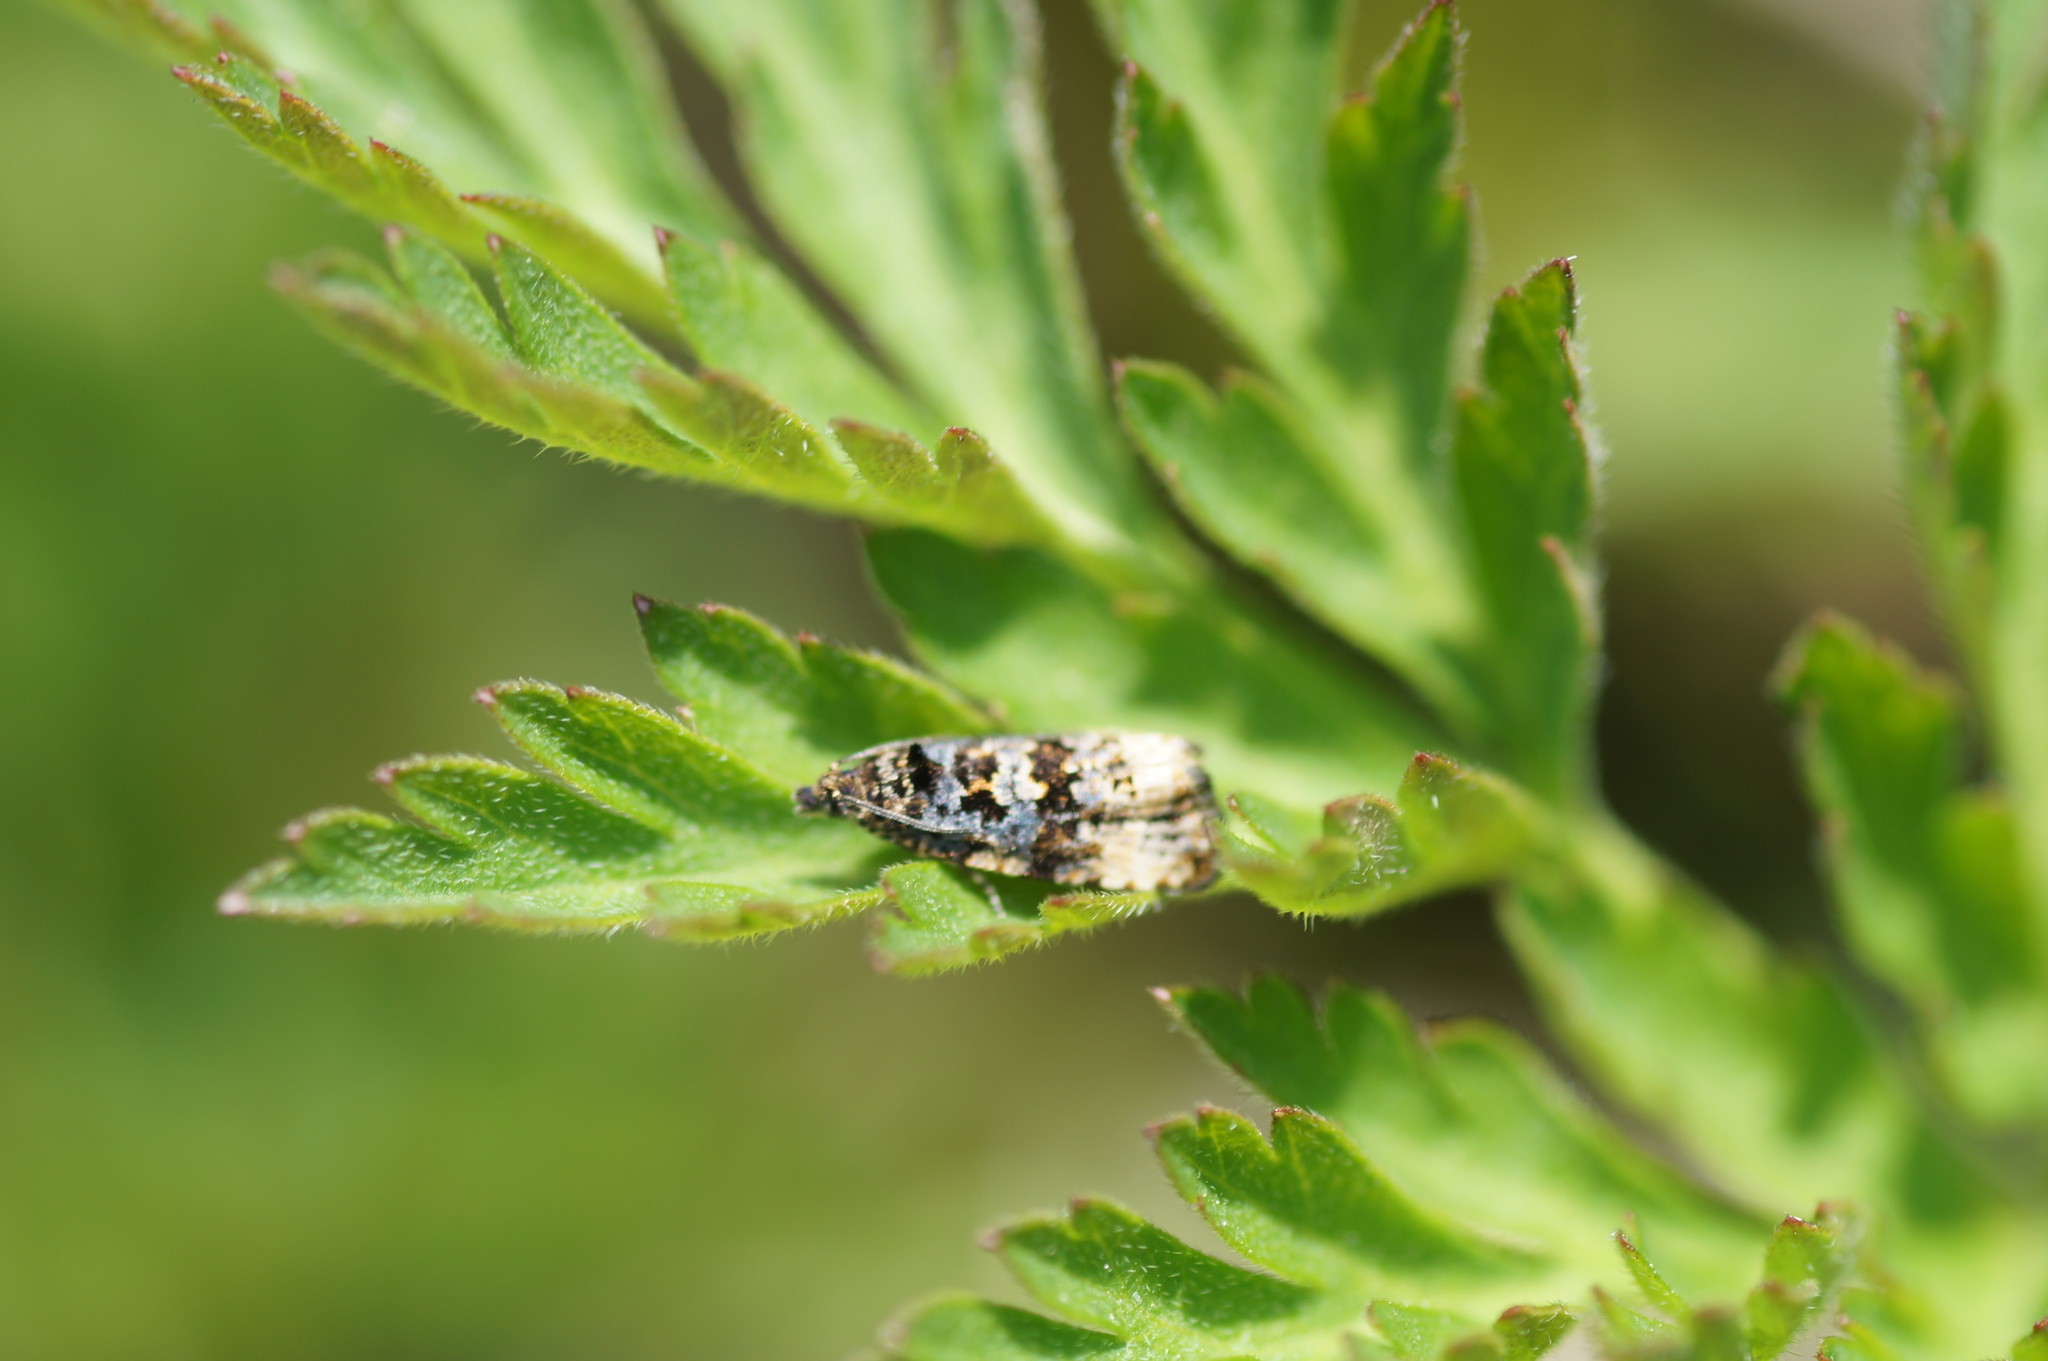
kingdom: Animalia
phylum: Arthropoda
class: Insecta
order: Lepidoptera
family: Tortricidae
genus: Endothenia
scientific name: Endothenia
